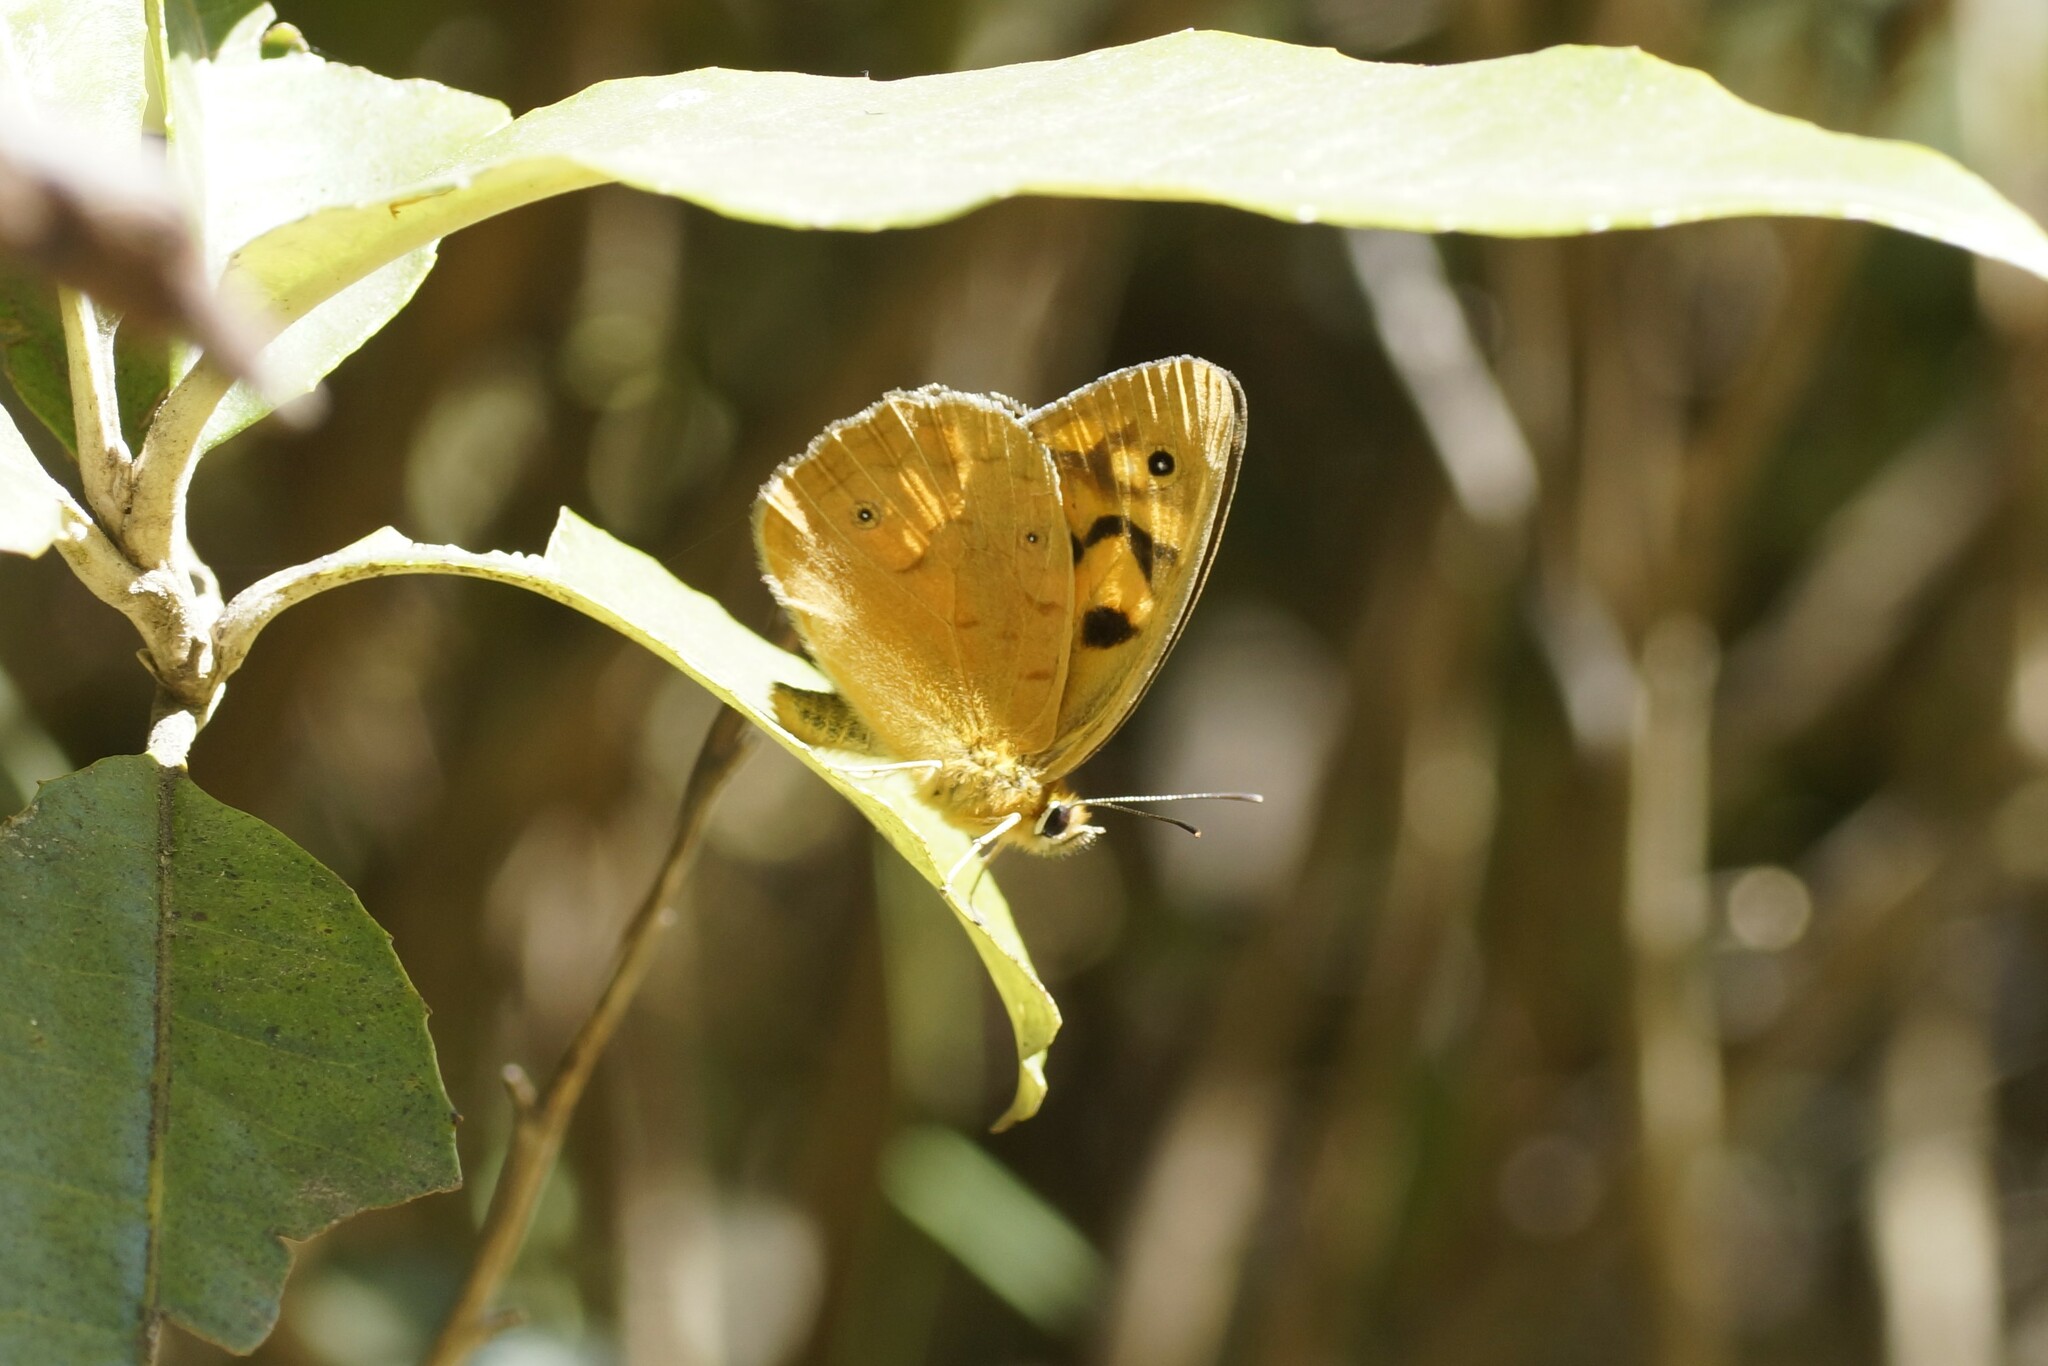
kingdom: Animalia
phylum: Arthropoda
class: Insecta
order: Lepidoptera
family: Nymphalidae
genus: Heteronympha
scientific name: Heteronympha penelope
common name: Shouldered brown
